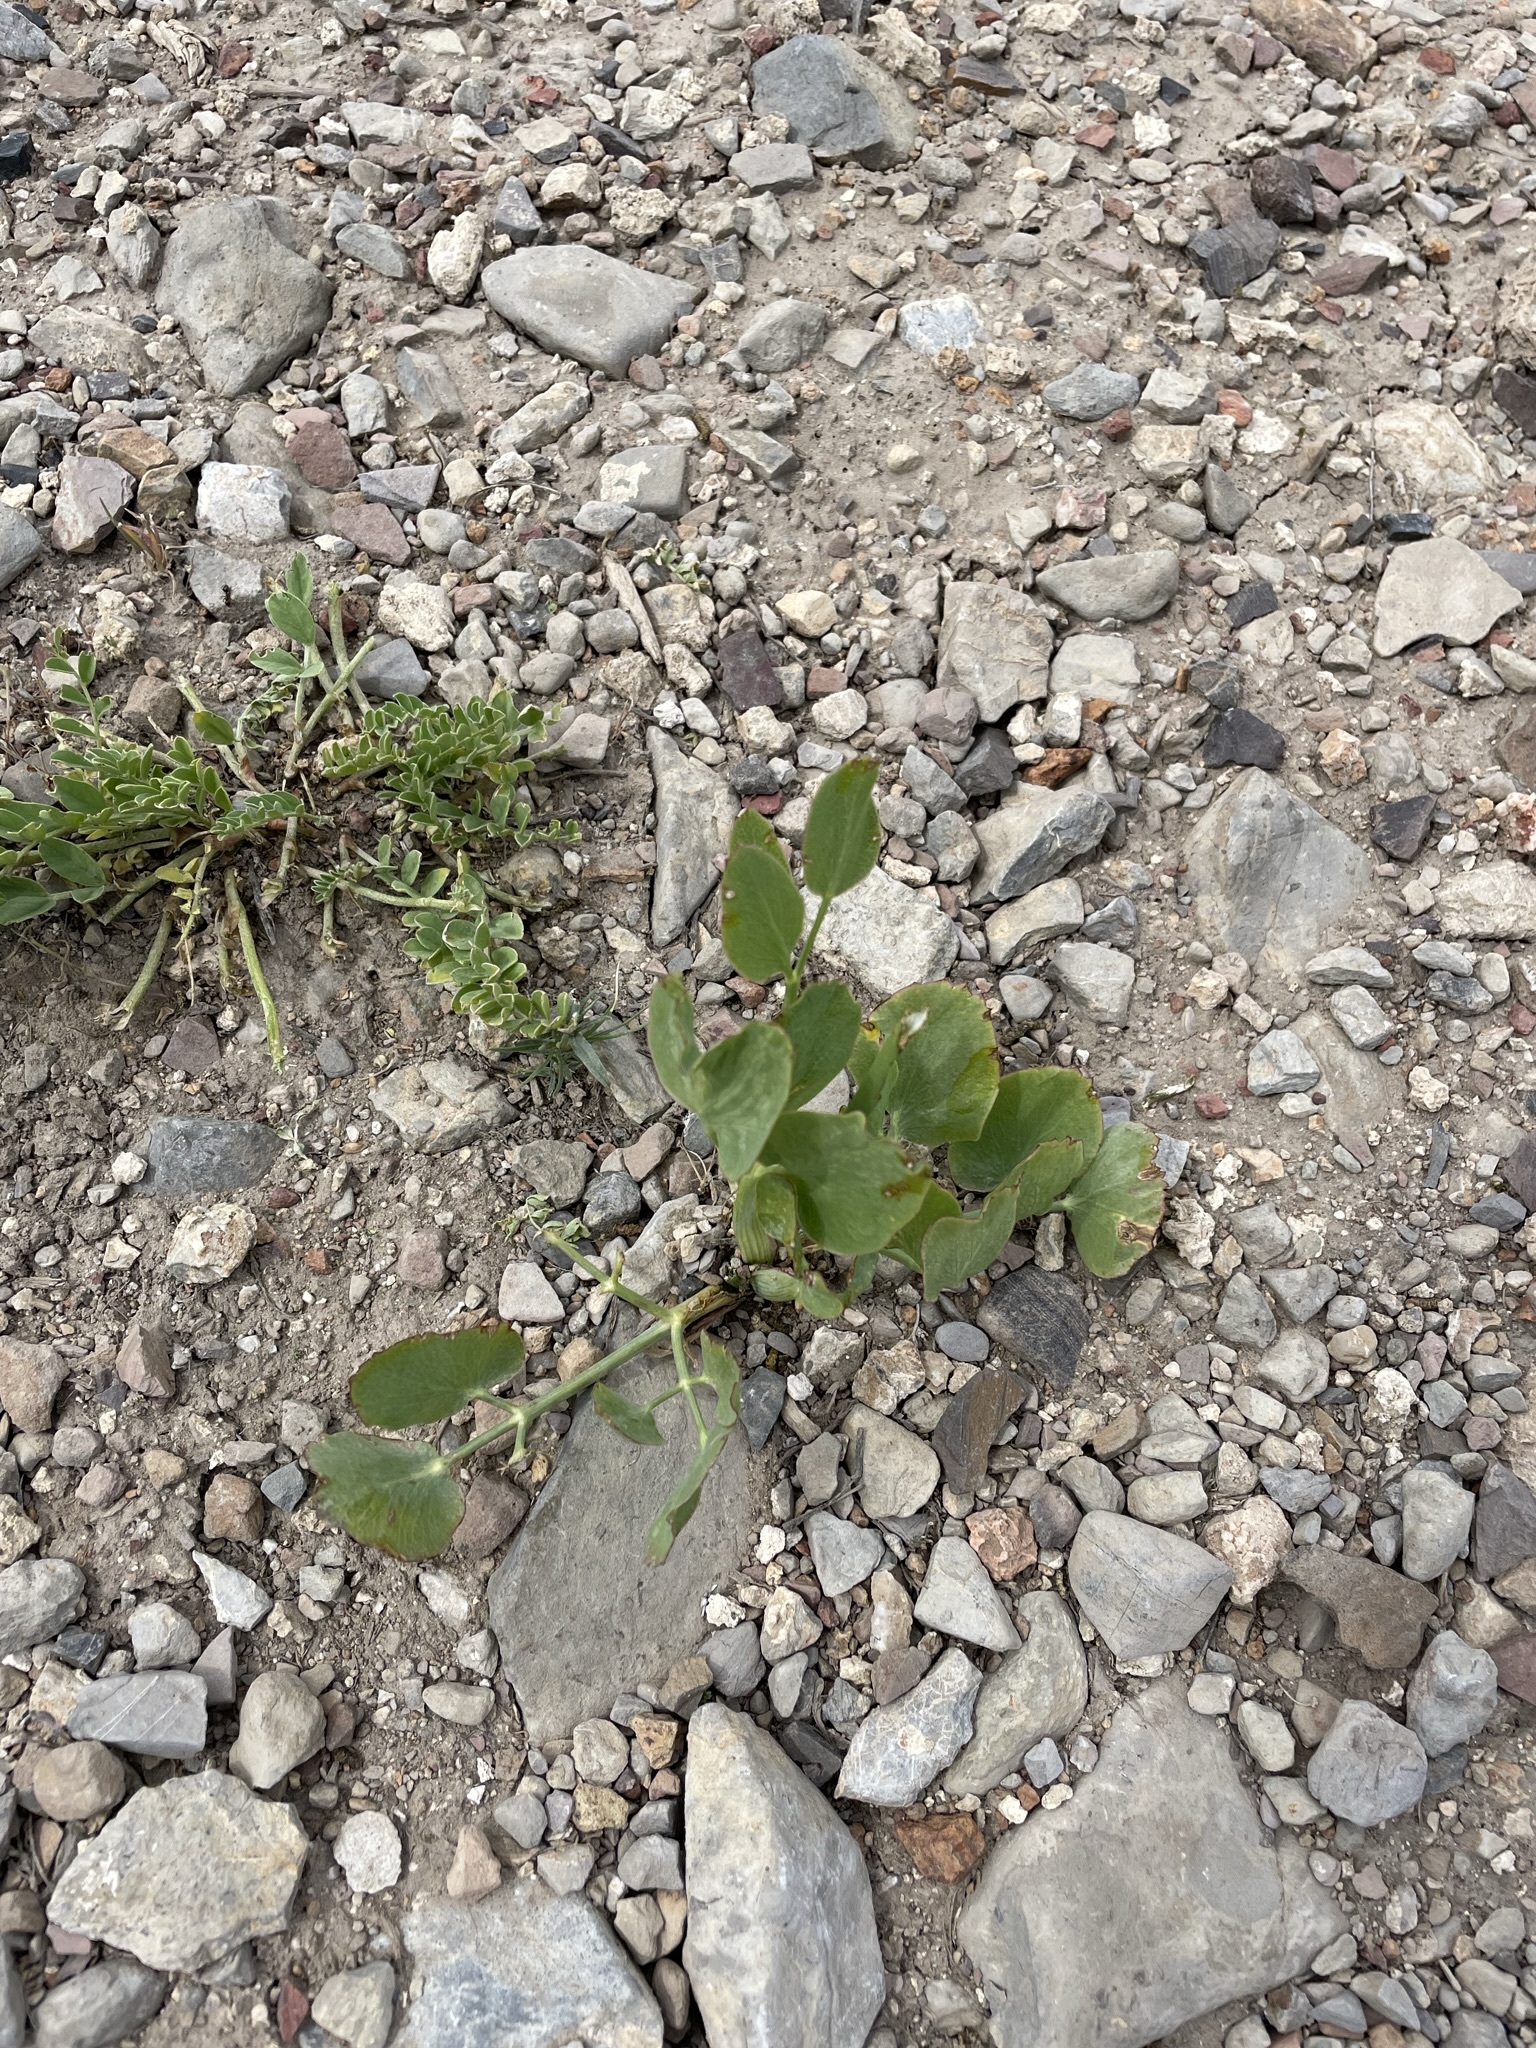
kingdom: Plantae
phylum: Tracheophyta
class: Magnoliopsida
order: Apiales
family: Apiaceae
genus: Lomatium
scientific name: Lomatium nudicaule
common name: Pestle lomatium
